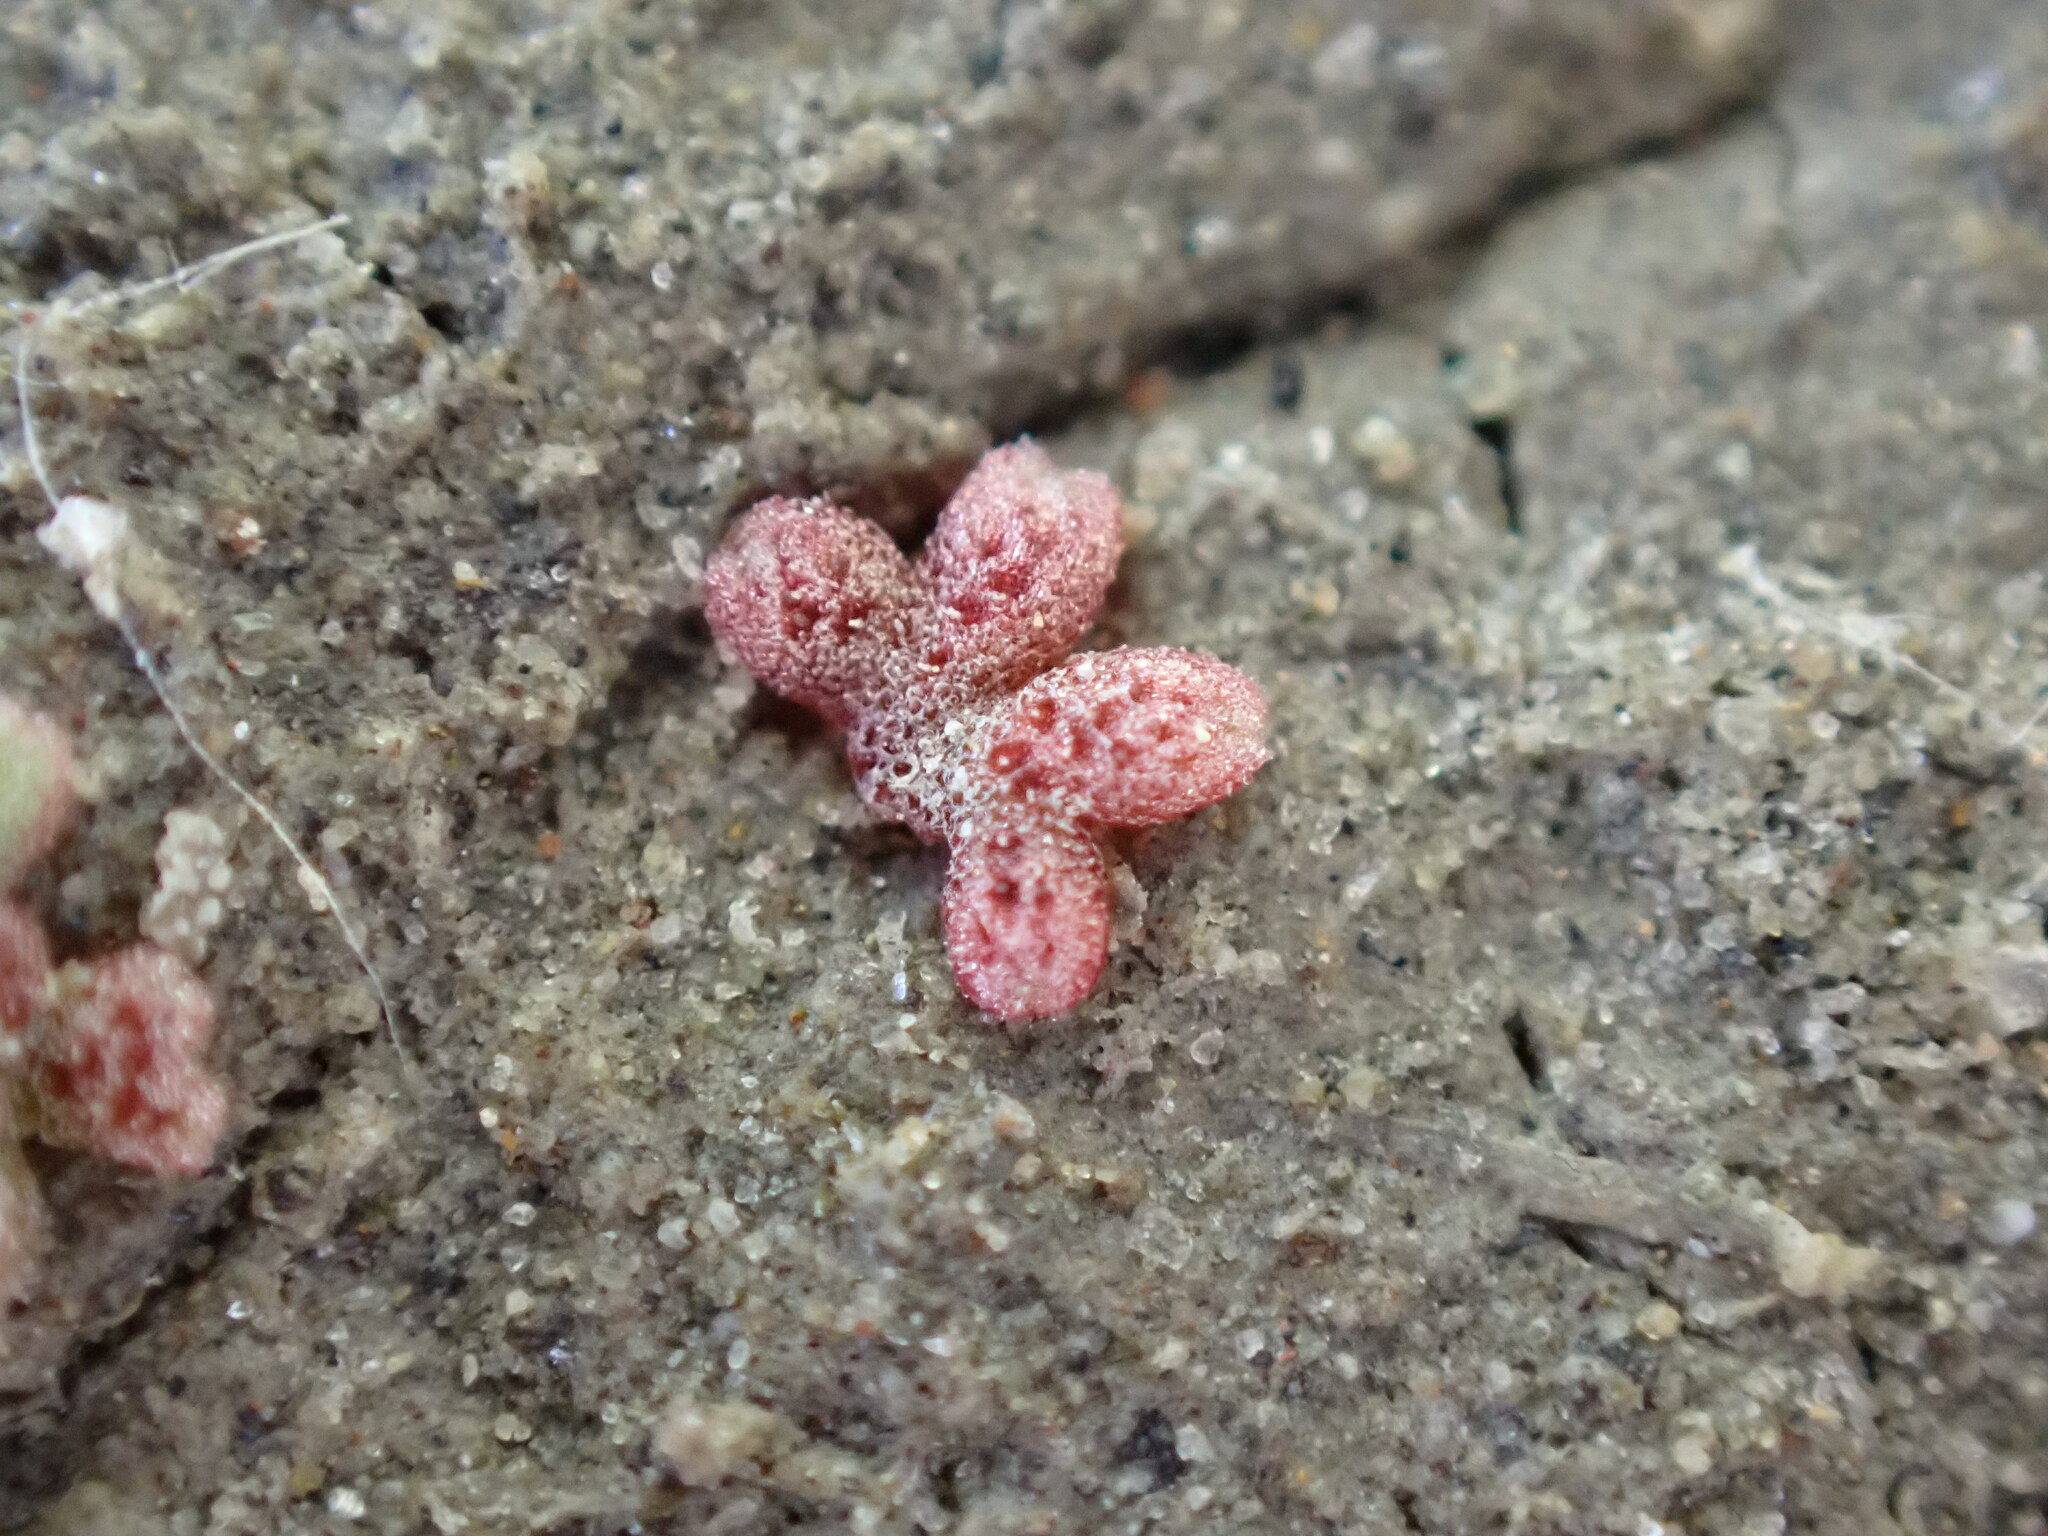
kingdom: Plantae
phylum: Marchantiophyta
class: Marchantiopsida
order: Marchantiales
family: Ricciaceae
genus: Riccia
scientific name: Riccia frostii
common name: Frost s crystalwort
